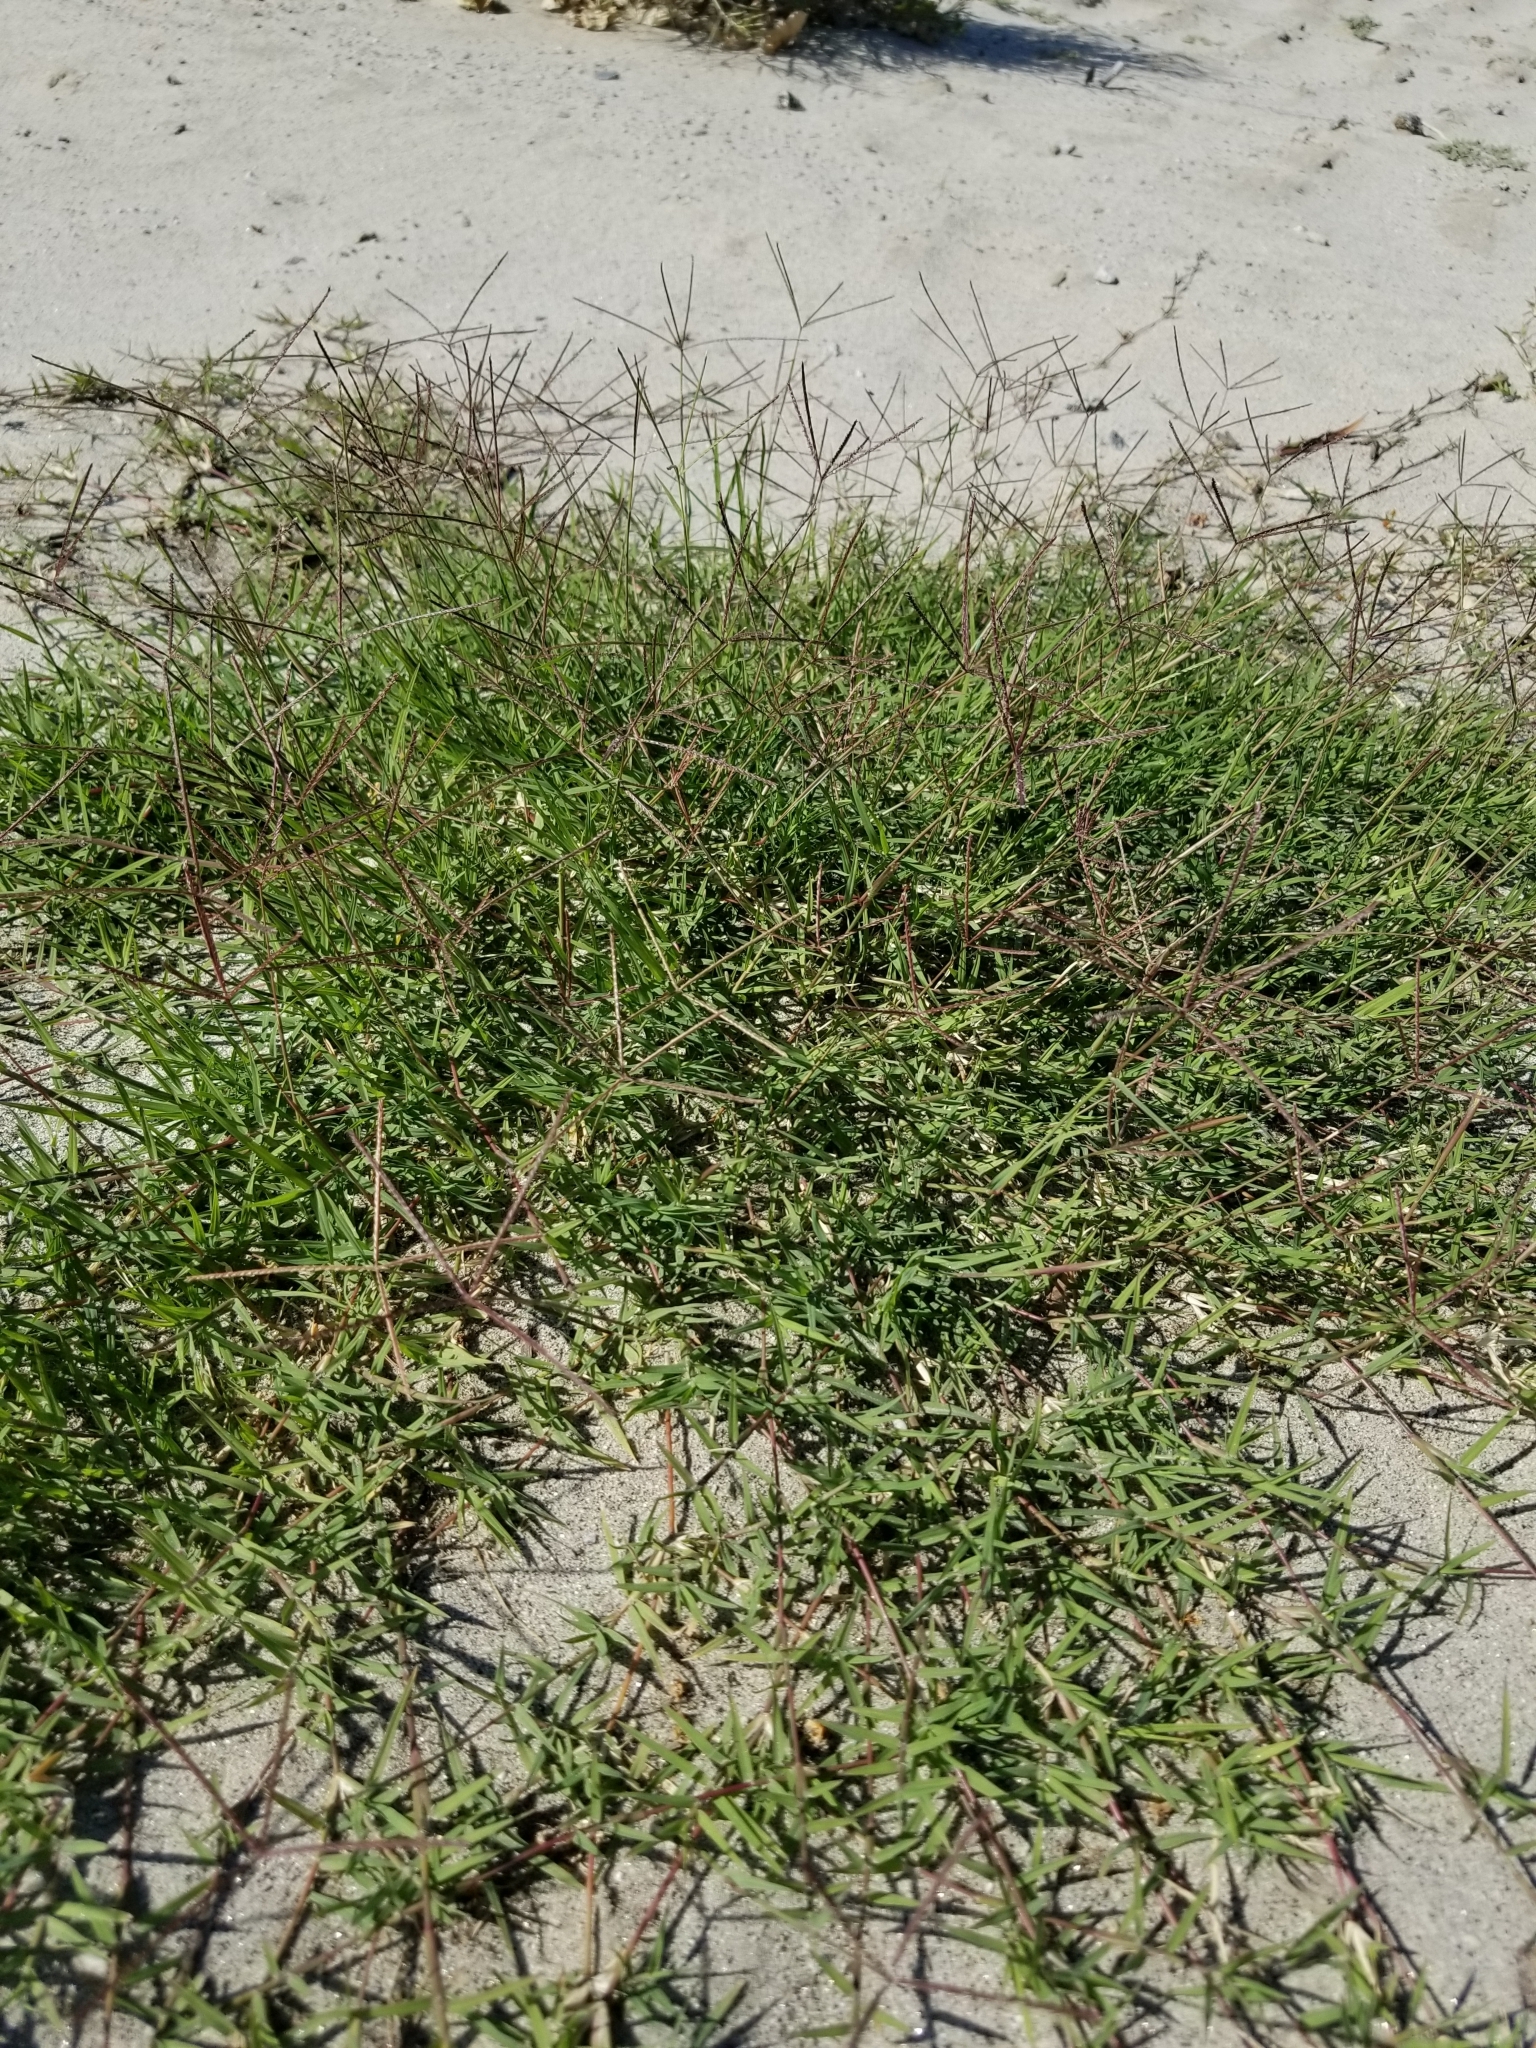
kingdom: Plantae
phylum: Tracheophyta
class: Liliopsida
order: Poales
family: Poaceae
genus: Cynodon
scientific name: Cynodon dactylon
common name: Bermuda grass
